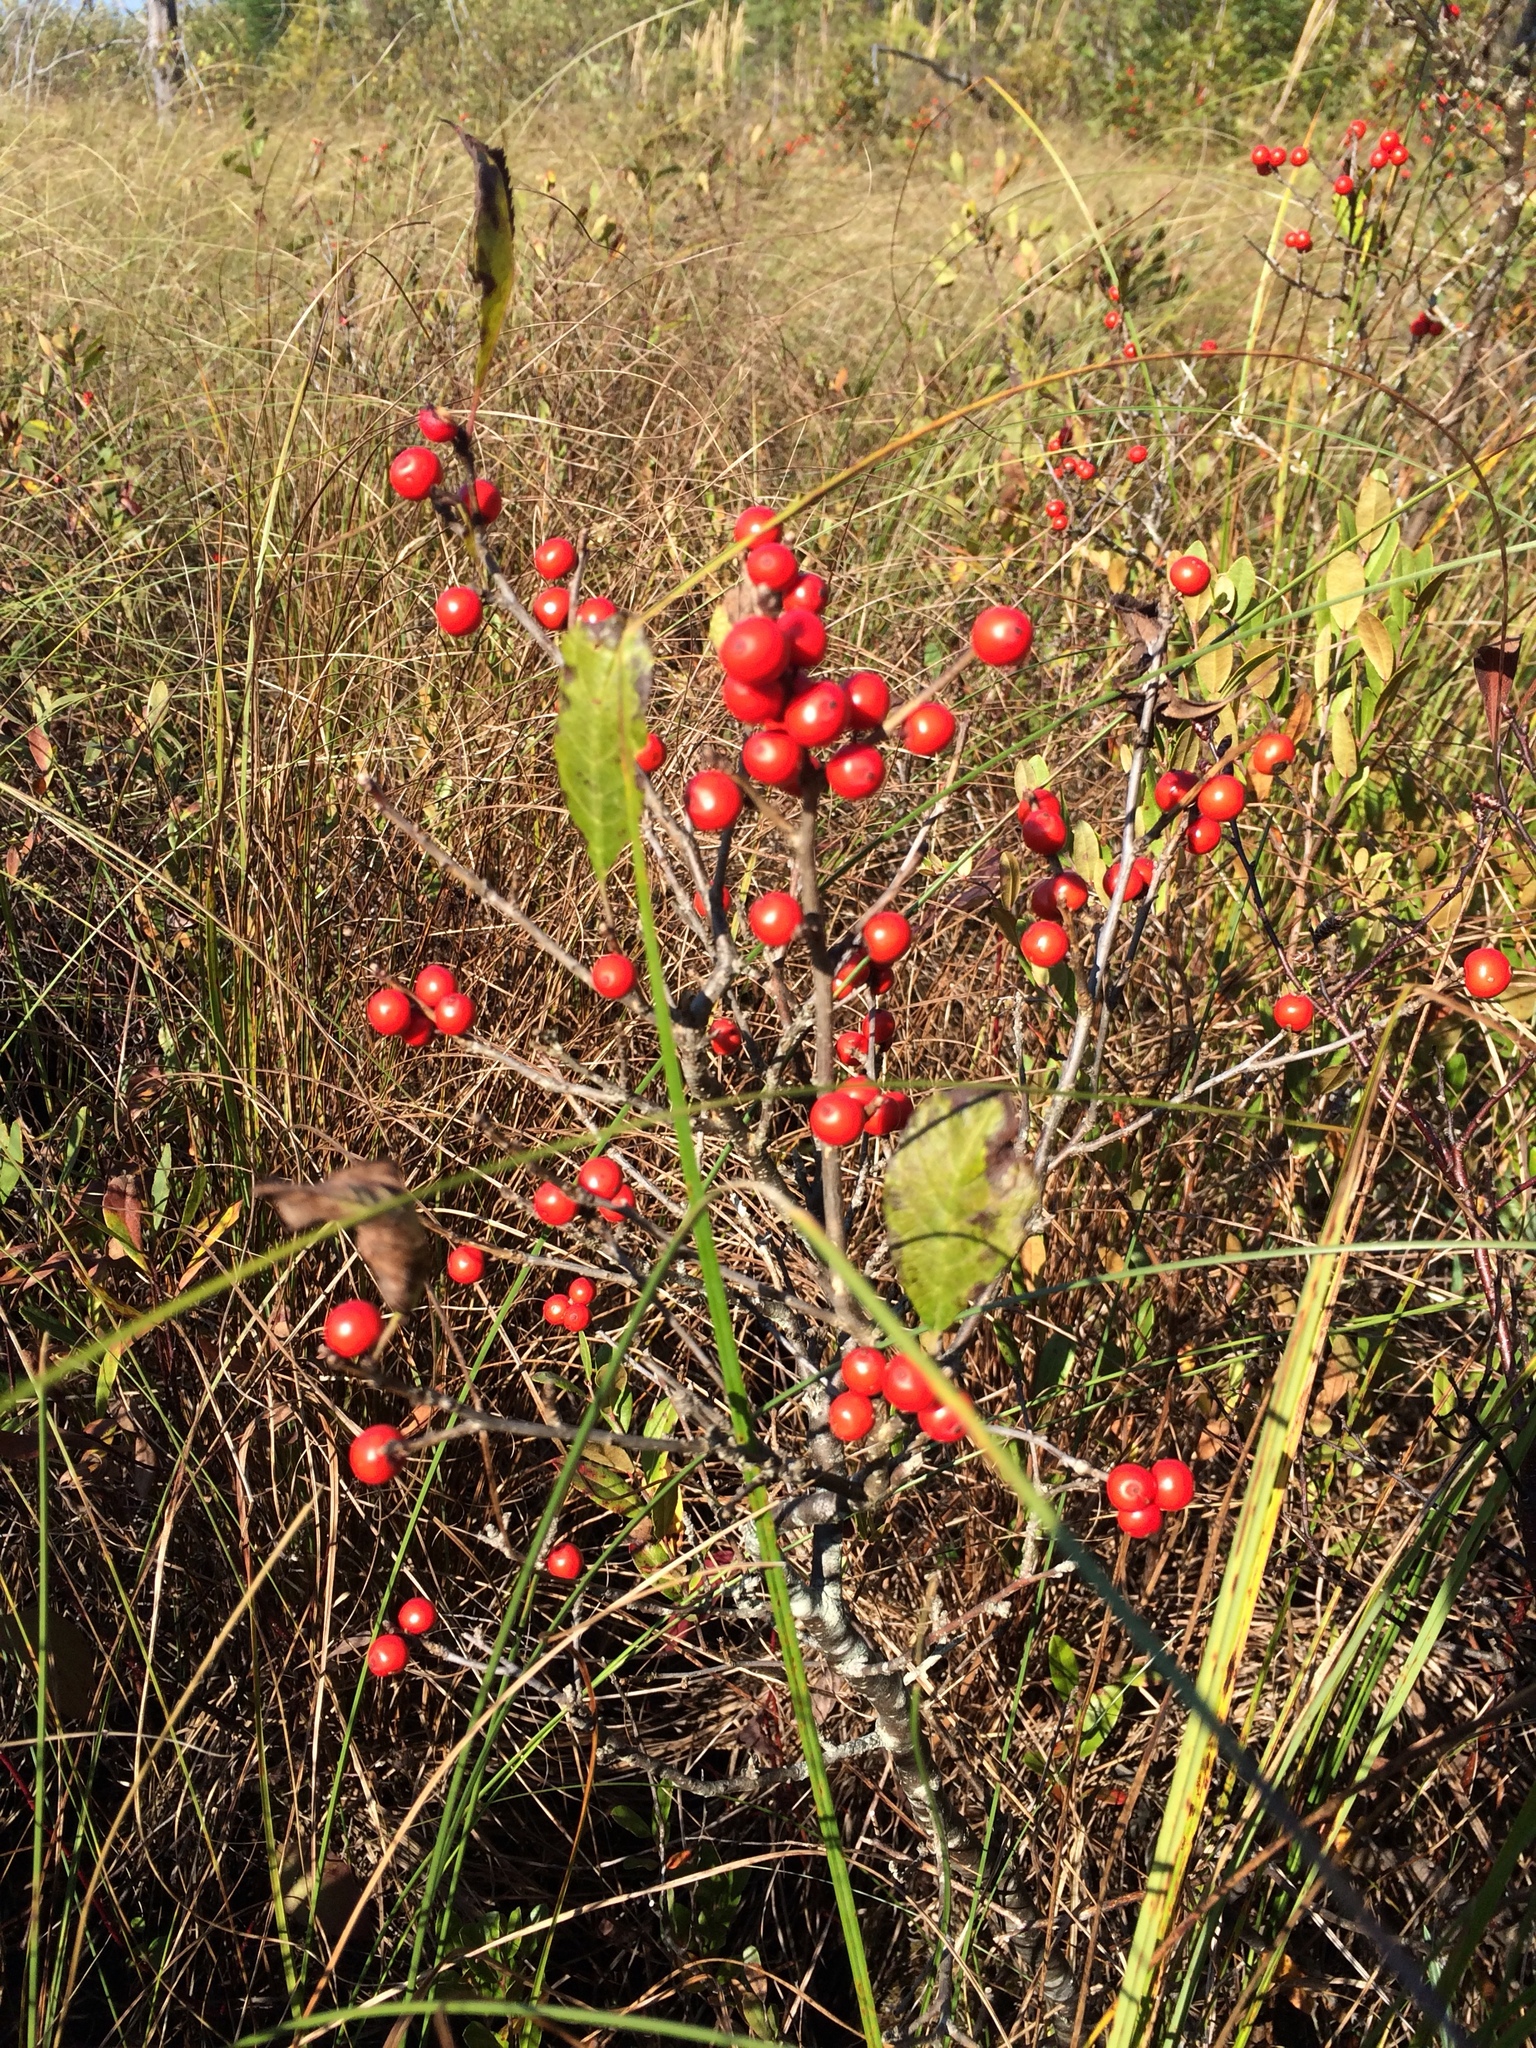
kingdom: Plantae
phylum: Tracheophyta
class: Magnoliopsida
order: Aquifoliales
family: Aquifoliaceae
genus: Ilex
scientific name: Ilex verticillata
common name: Virginia winterberry
